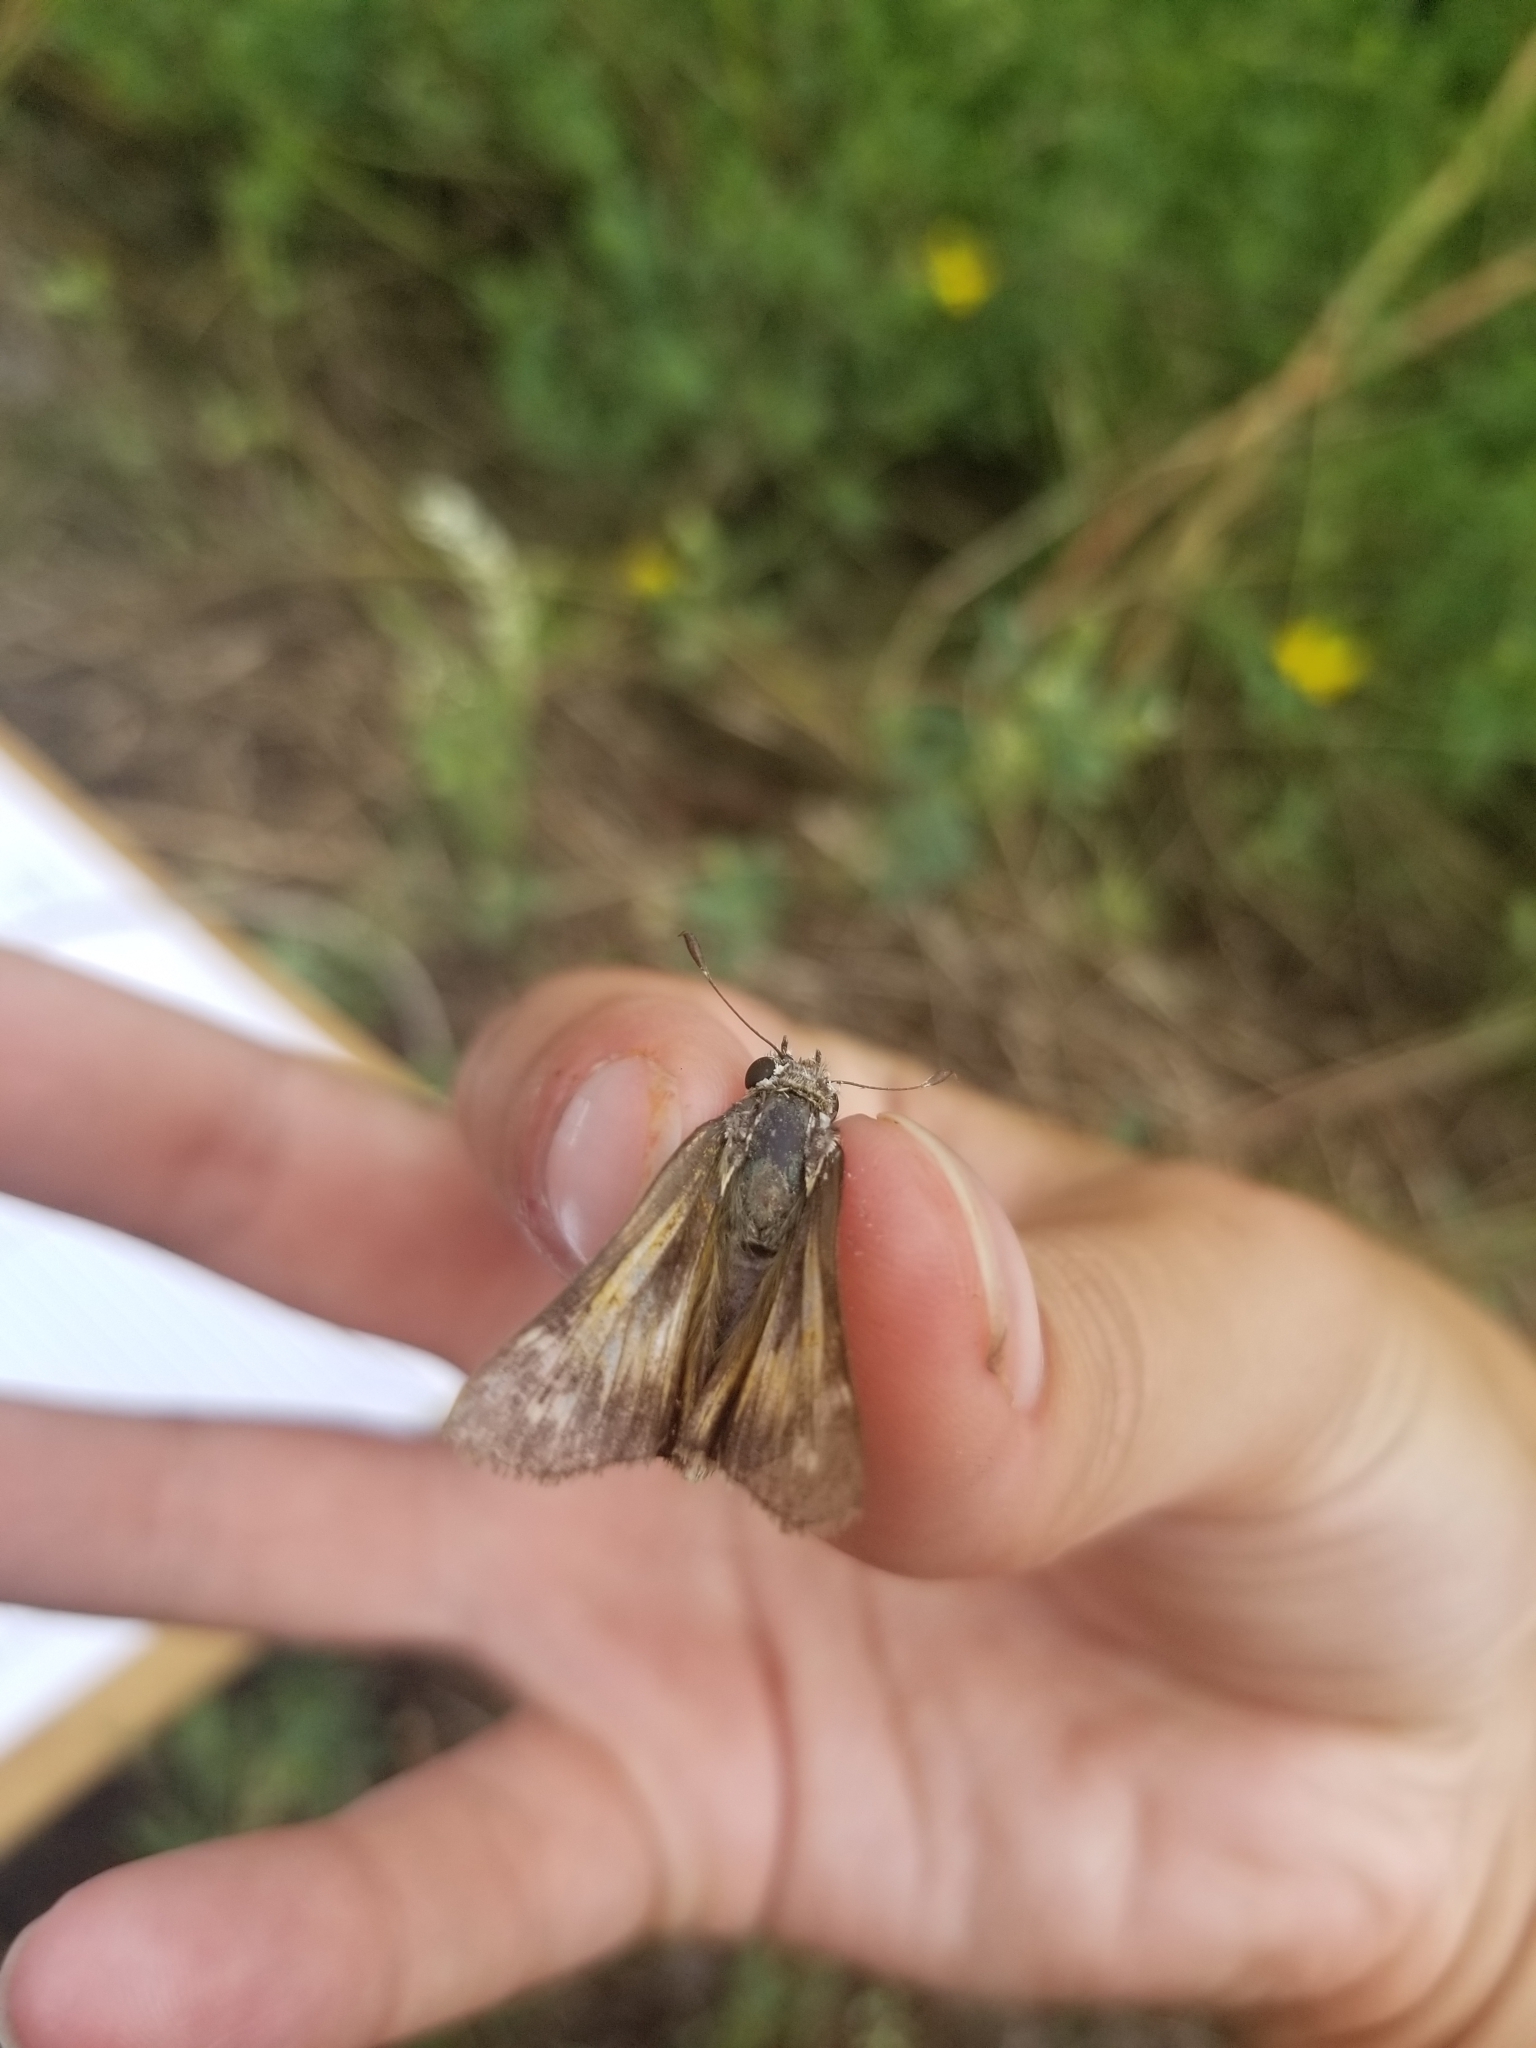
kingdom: Animalia
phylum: Arthropoda
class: Insecta
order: Lepidoptera
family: Hesperiidae
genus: Atalopedes
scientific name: Atalopedes
